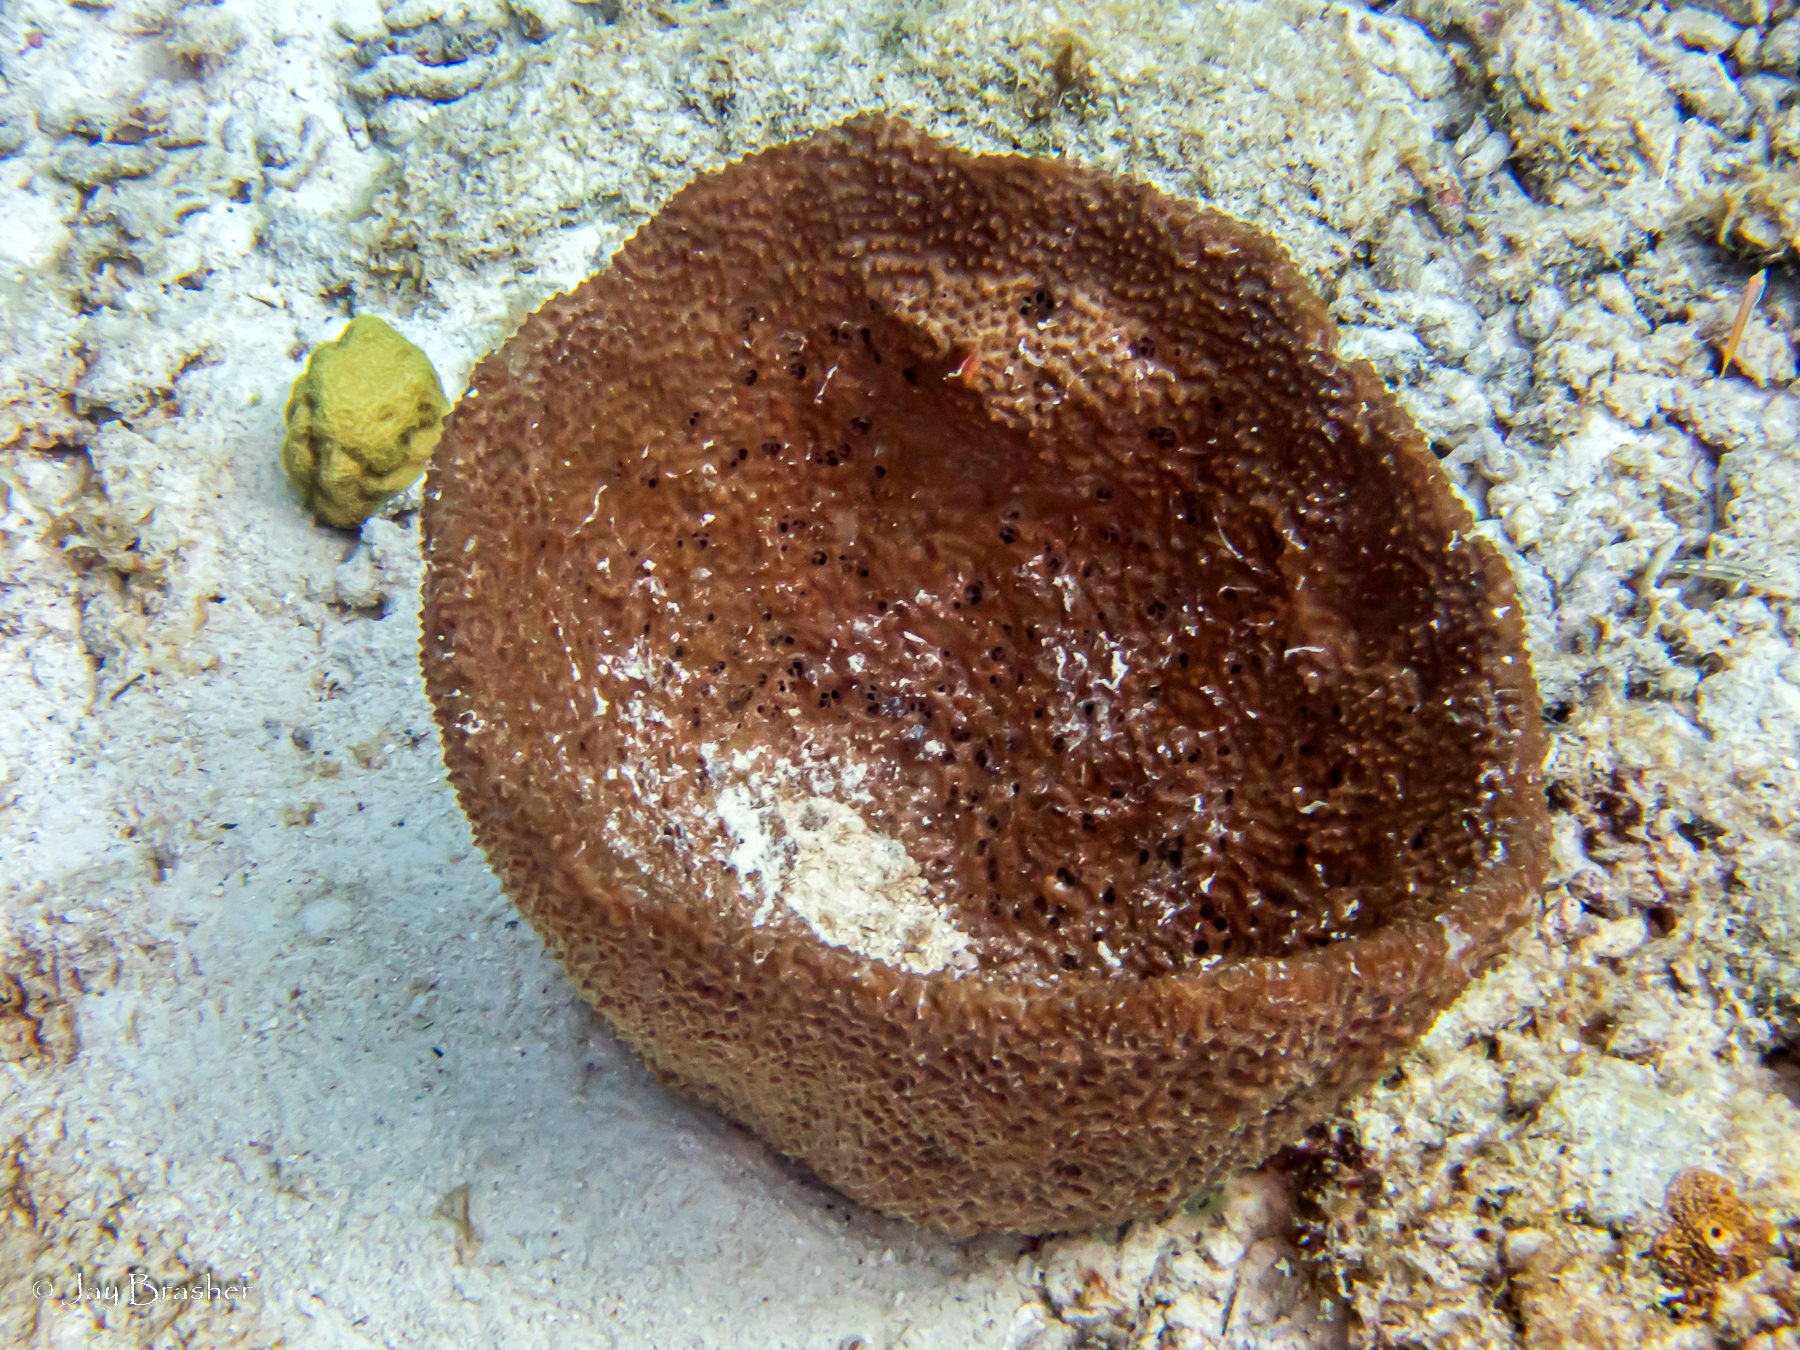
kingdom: Animalia
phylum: Porifera
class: Demospongiae
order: Dictyoceratida
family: Irciniidae
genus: Ircinia
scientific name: Ircinia campana
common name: Vase sponge
